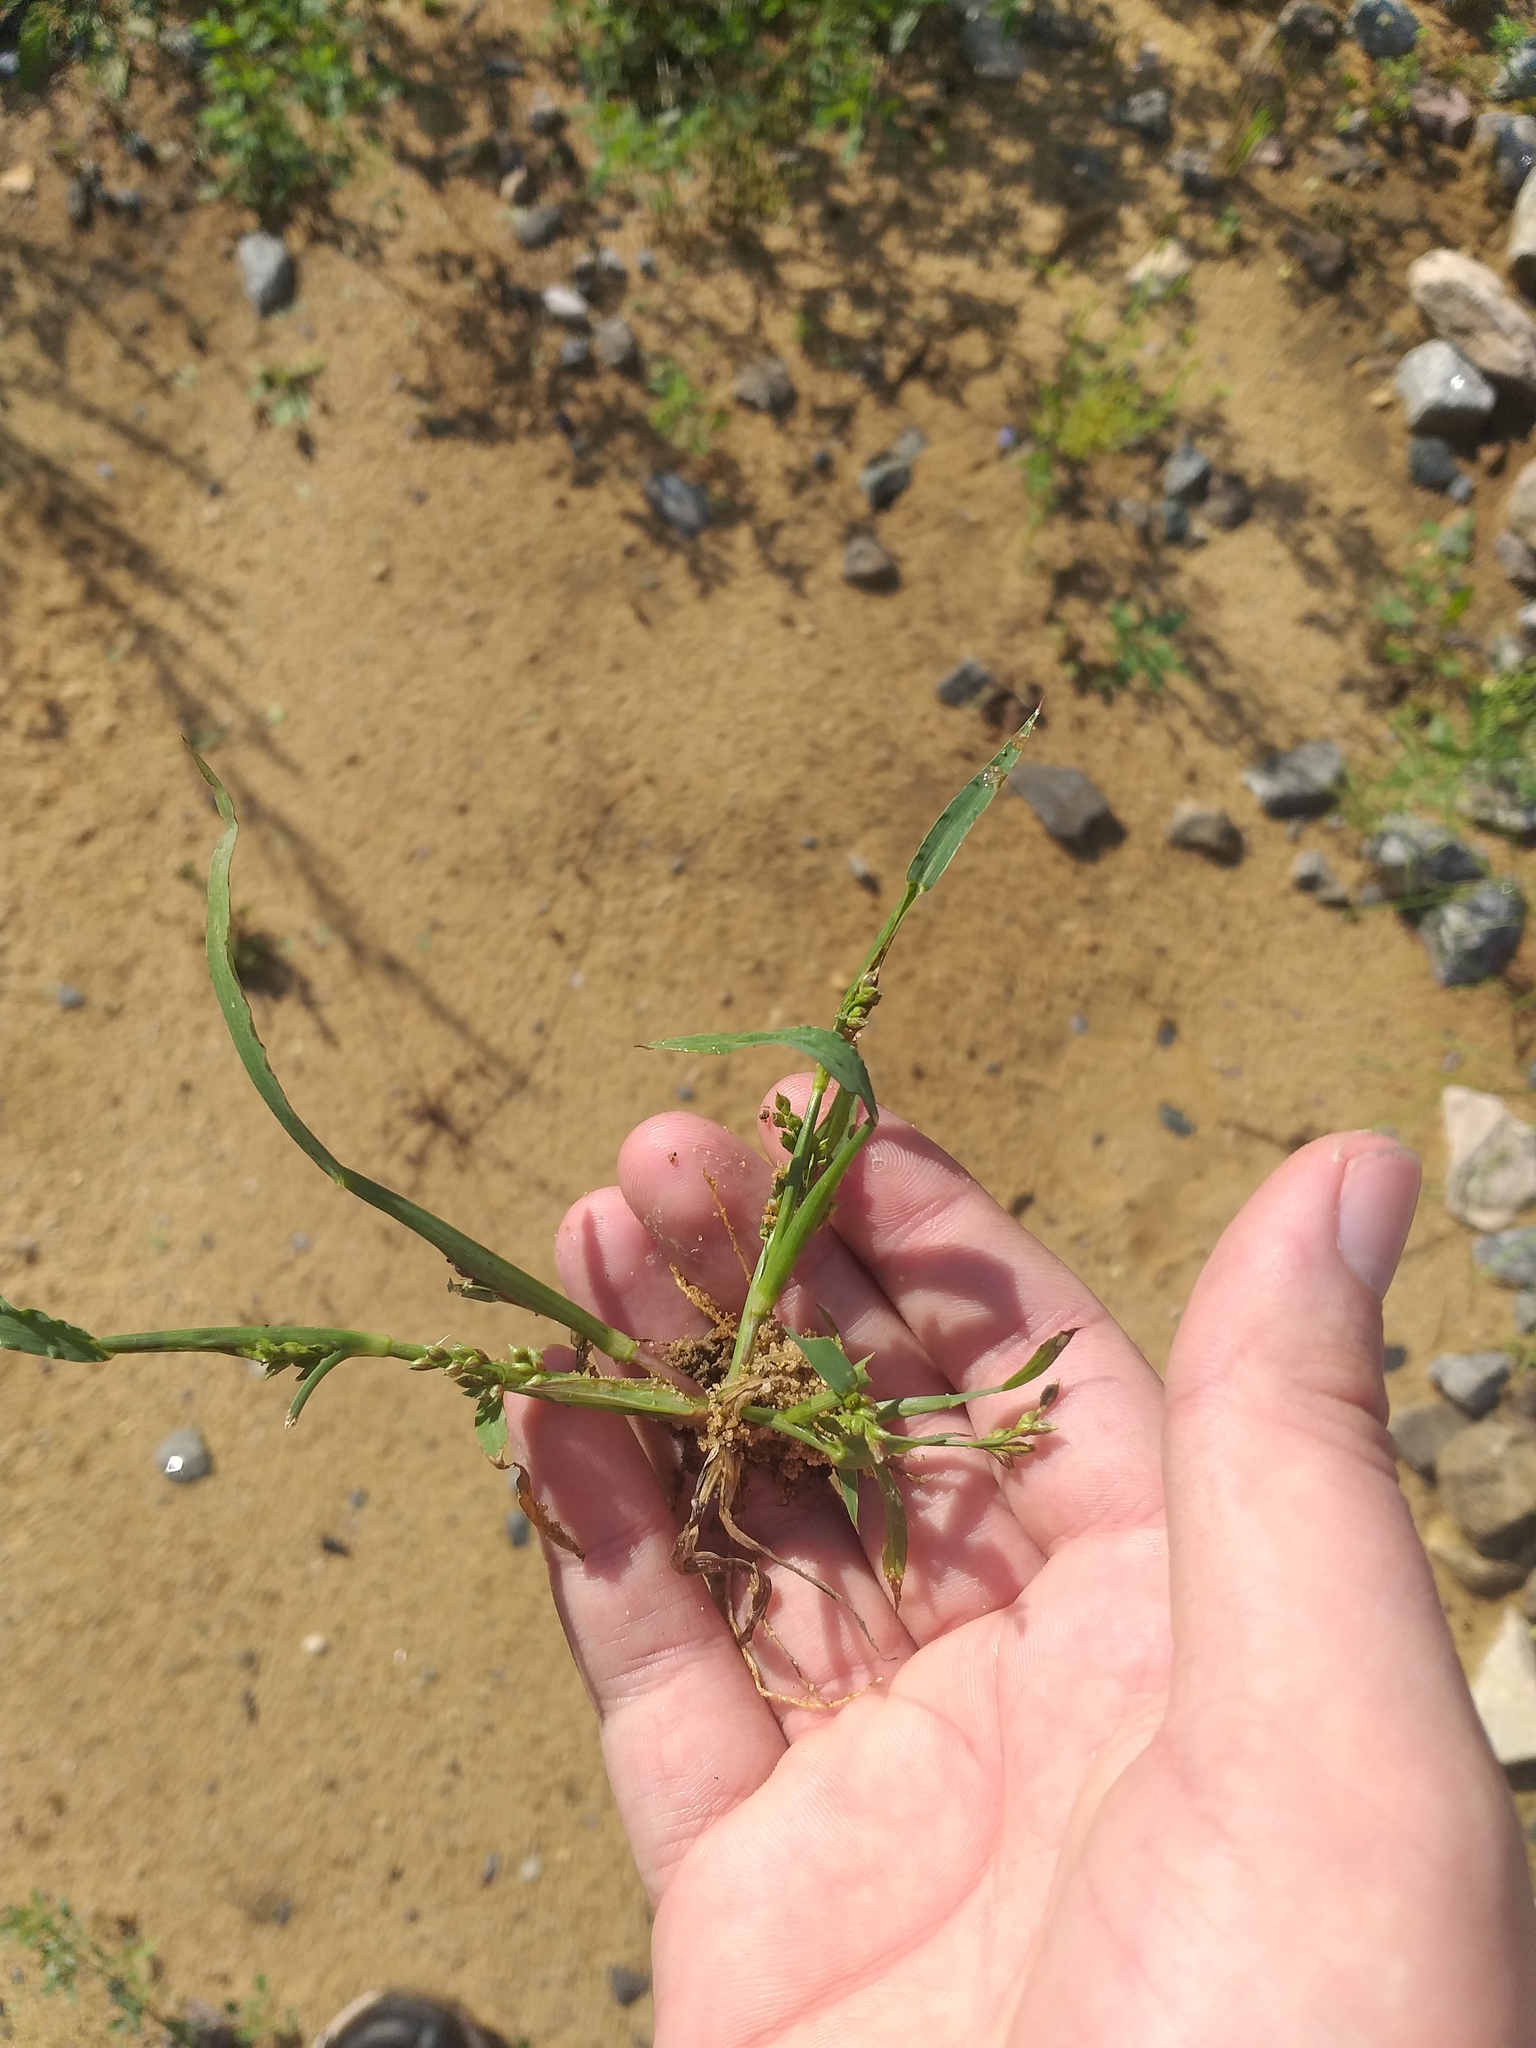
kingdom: Plantae
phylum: Tracheophyta
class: Liliopsida
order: Poales
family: Poaceae
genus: Echinochloa
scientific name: Echinochloa crus-galli
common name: Cockspur
